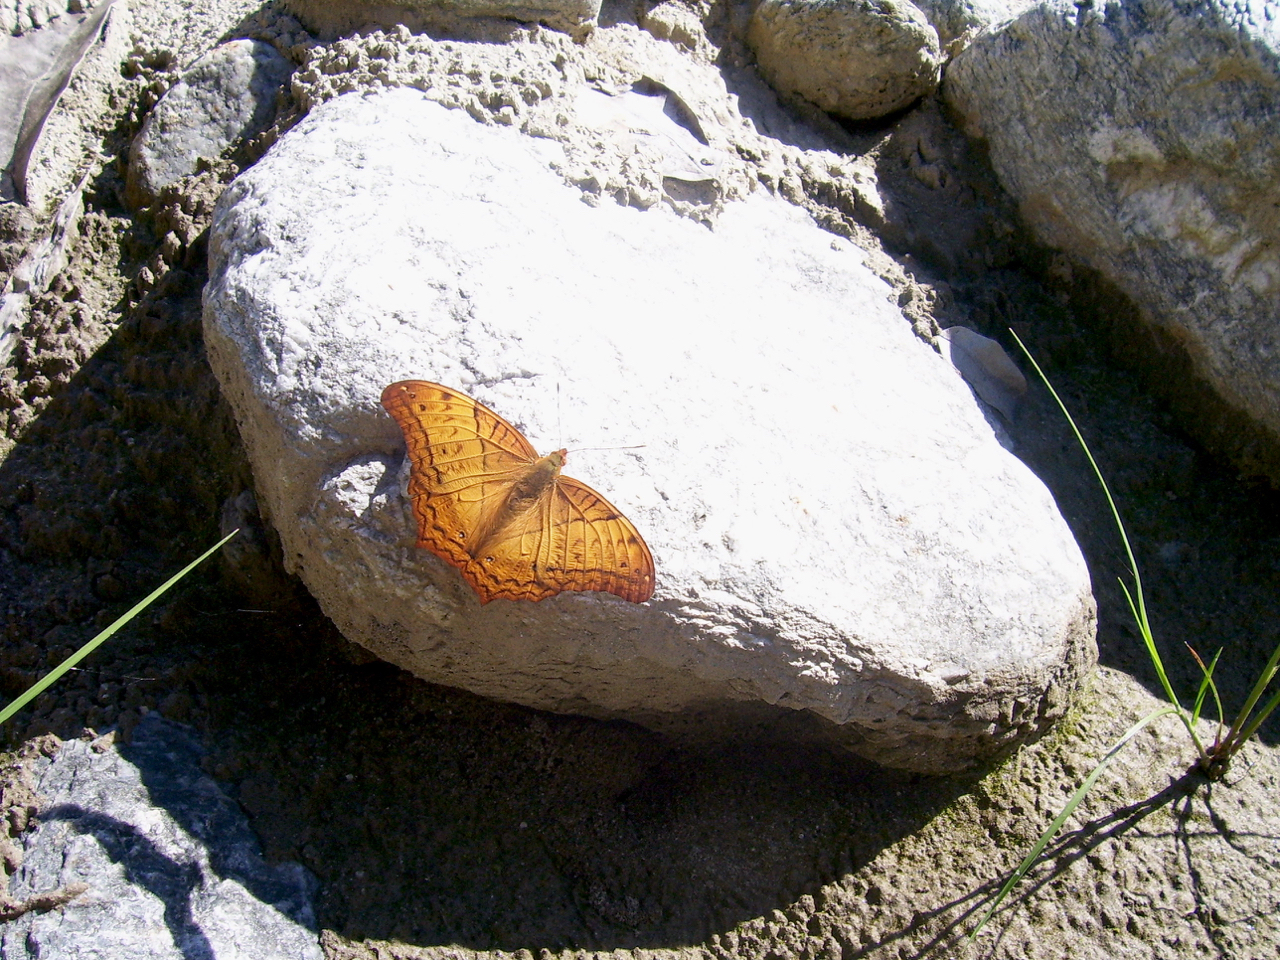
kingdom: Animalia
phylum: Arthropoda
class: Insecta
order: Lepidoptera
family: Nymphalidae
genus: Vindula
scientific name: Vindula erota
